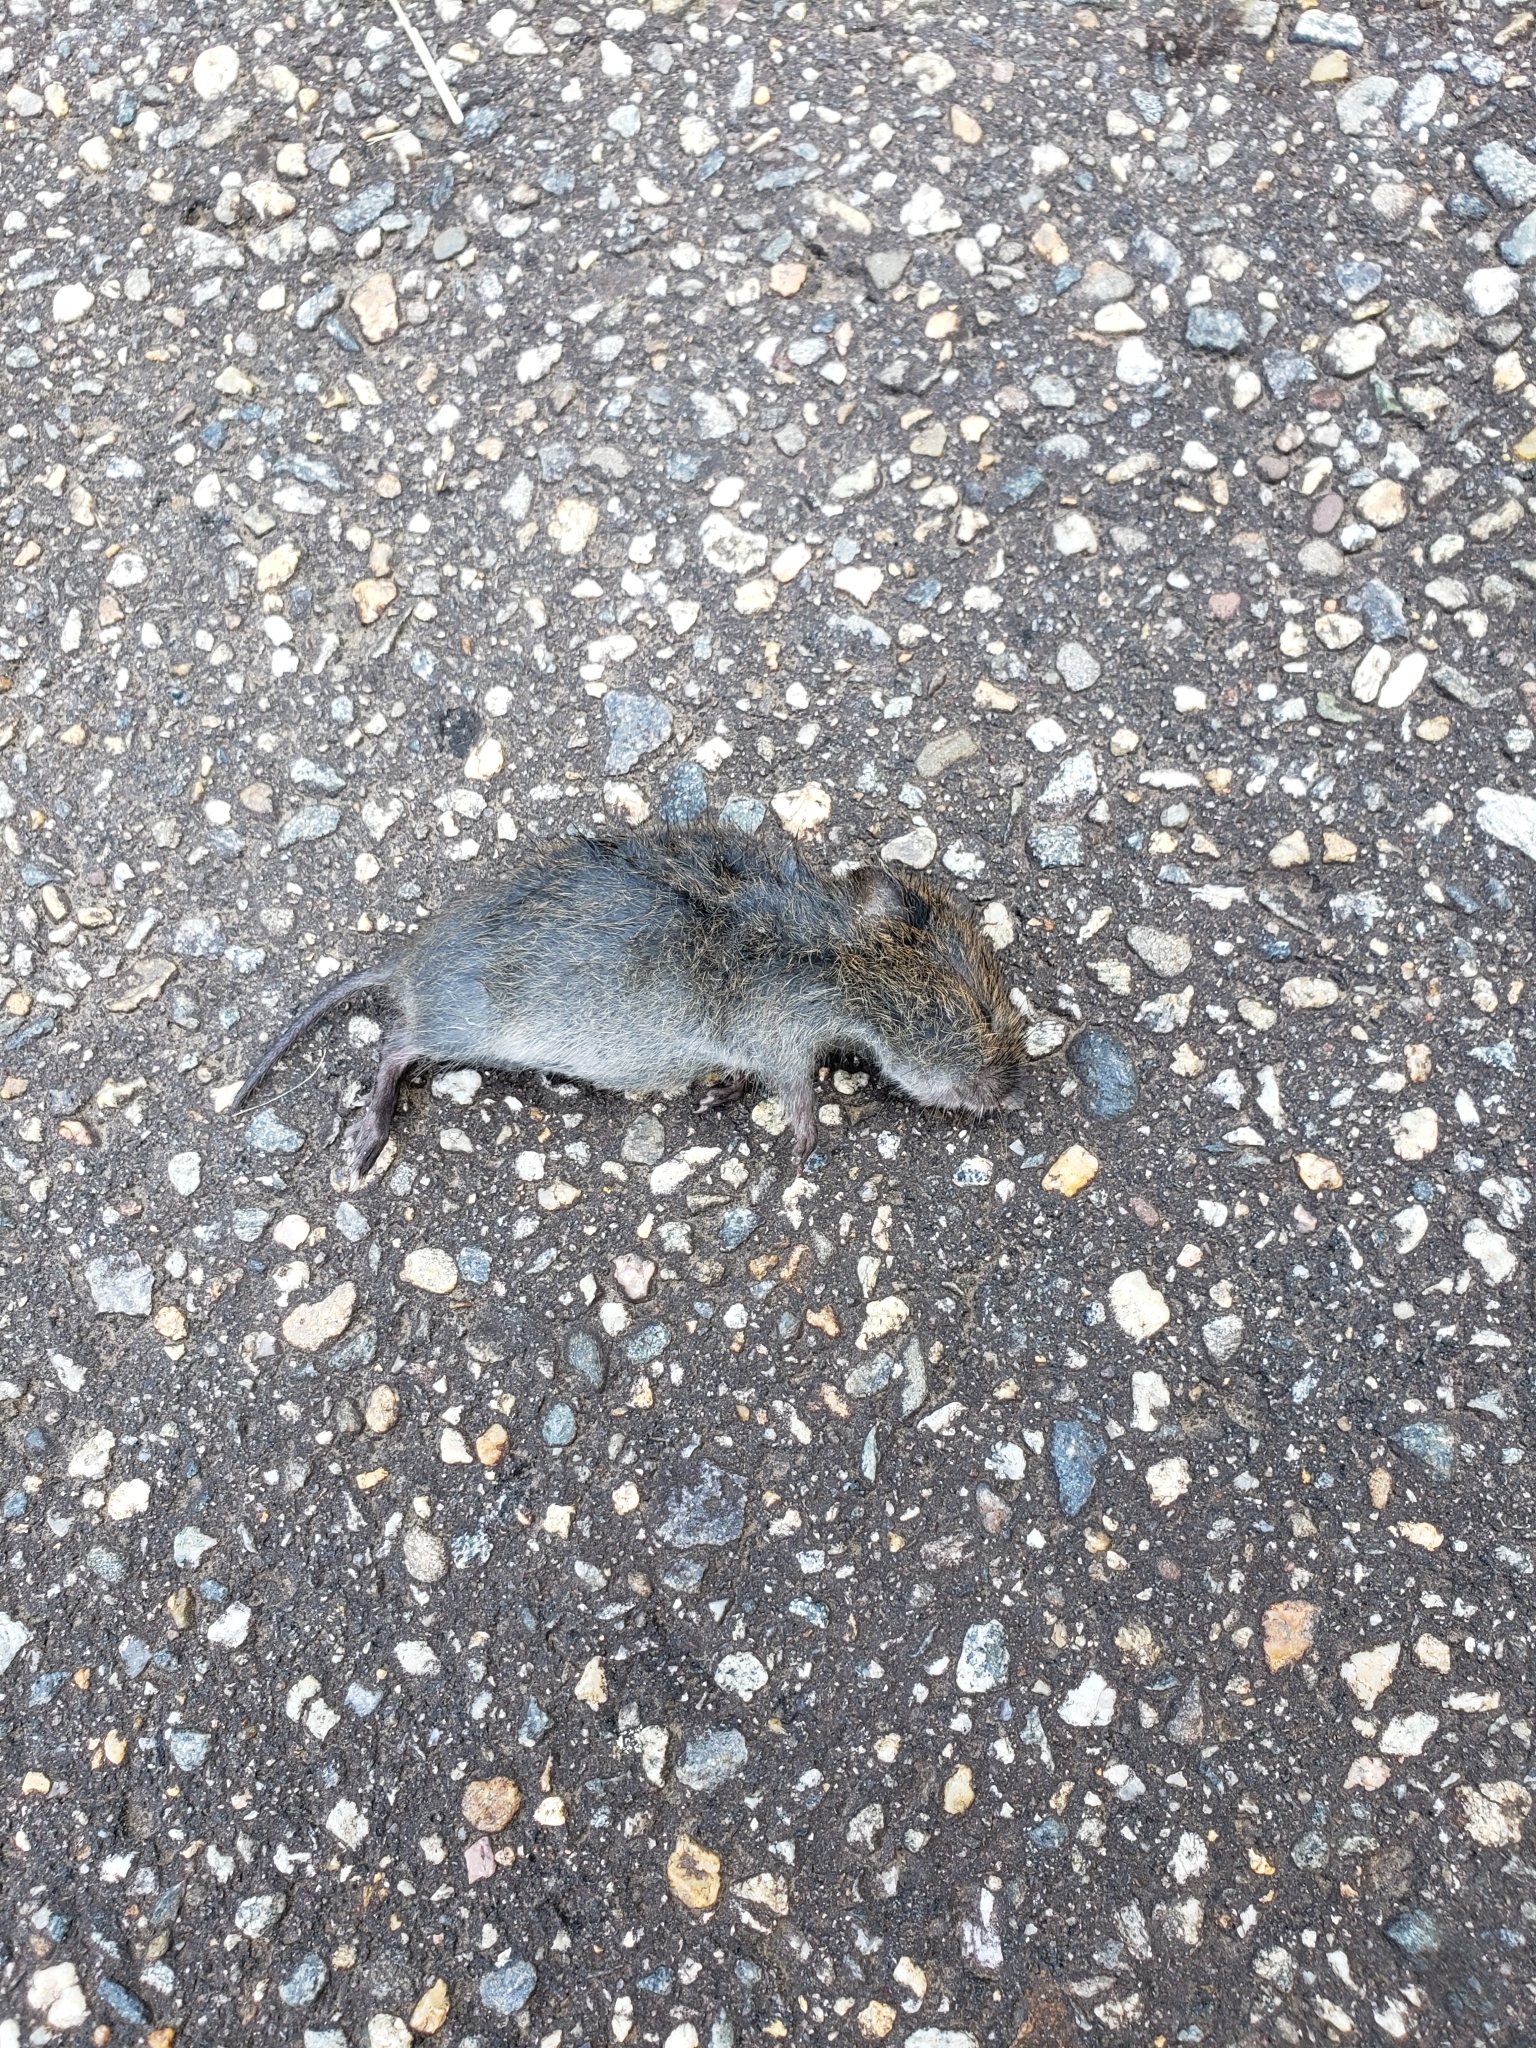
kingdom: Animalia
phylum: Chordata
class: Mammalia
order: Rodentia
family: Cricetidae
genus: Microtus
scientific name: Microtus pennsylvanicus
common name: Meadow vole
